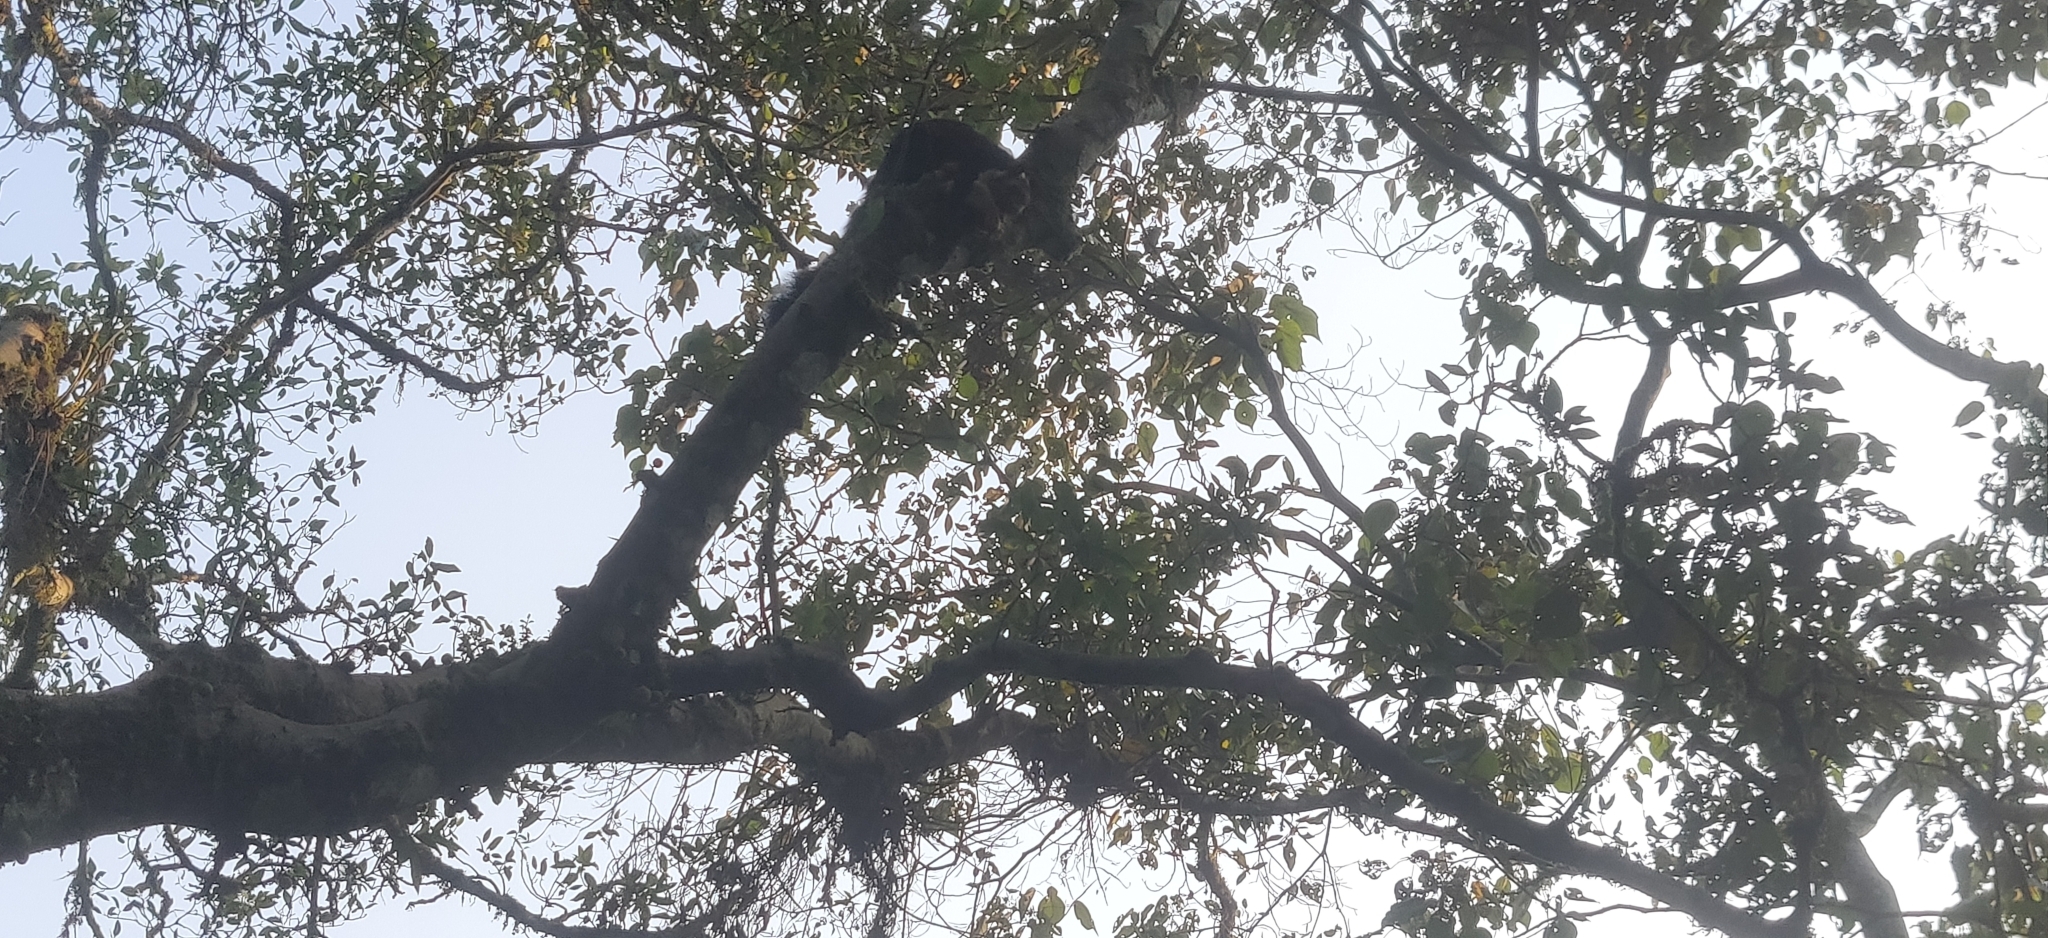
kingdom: Animalia
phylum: Chordata
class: Mammalia
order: Rodentia
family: Sciuridae
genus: Ratufa
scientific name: Ratufa indica
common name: Indian giant squirrel
